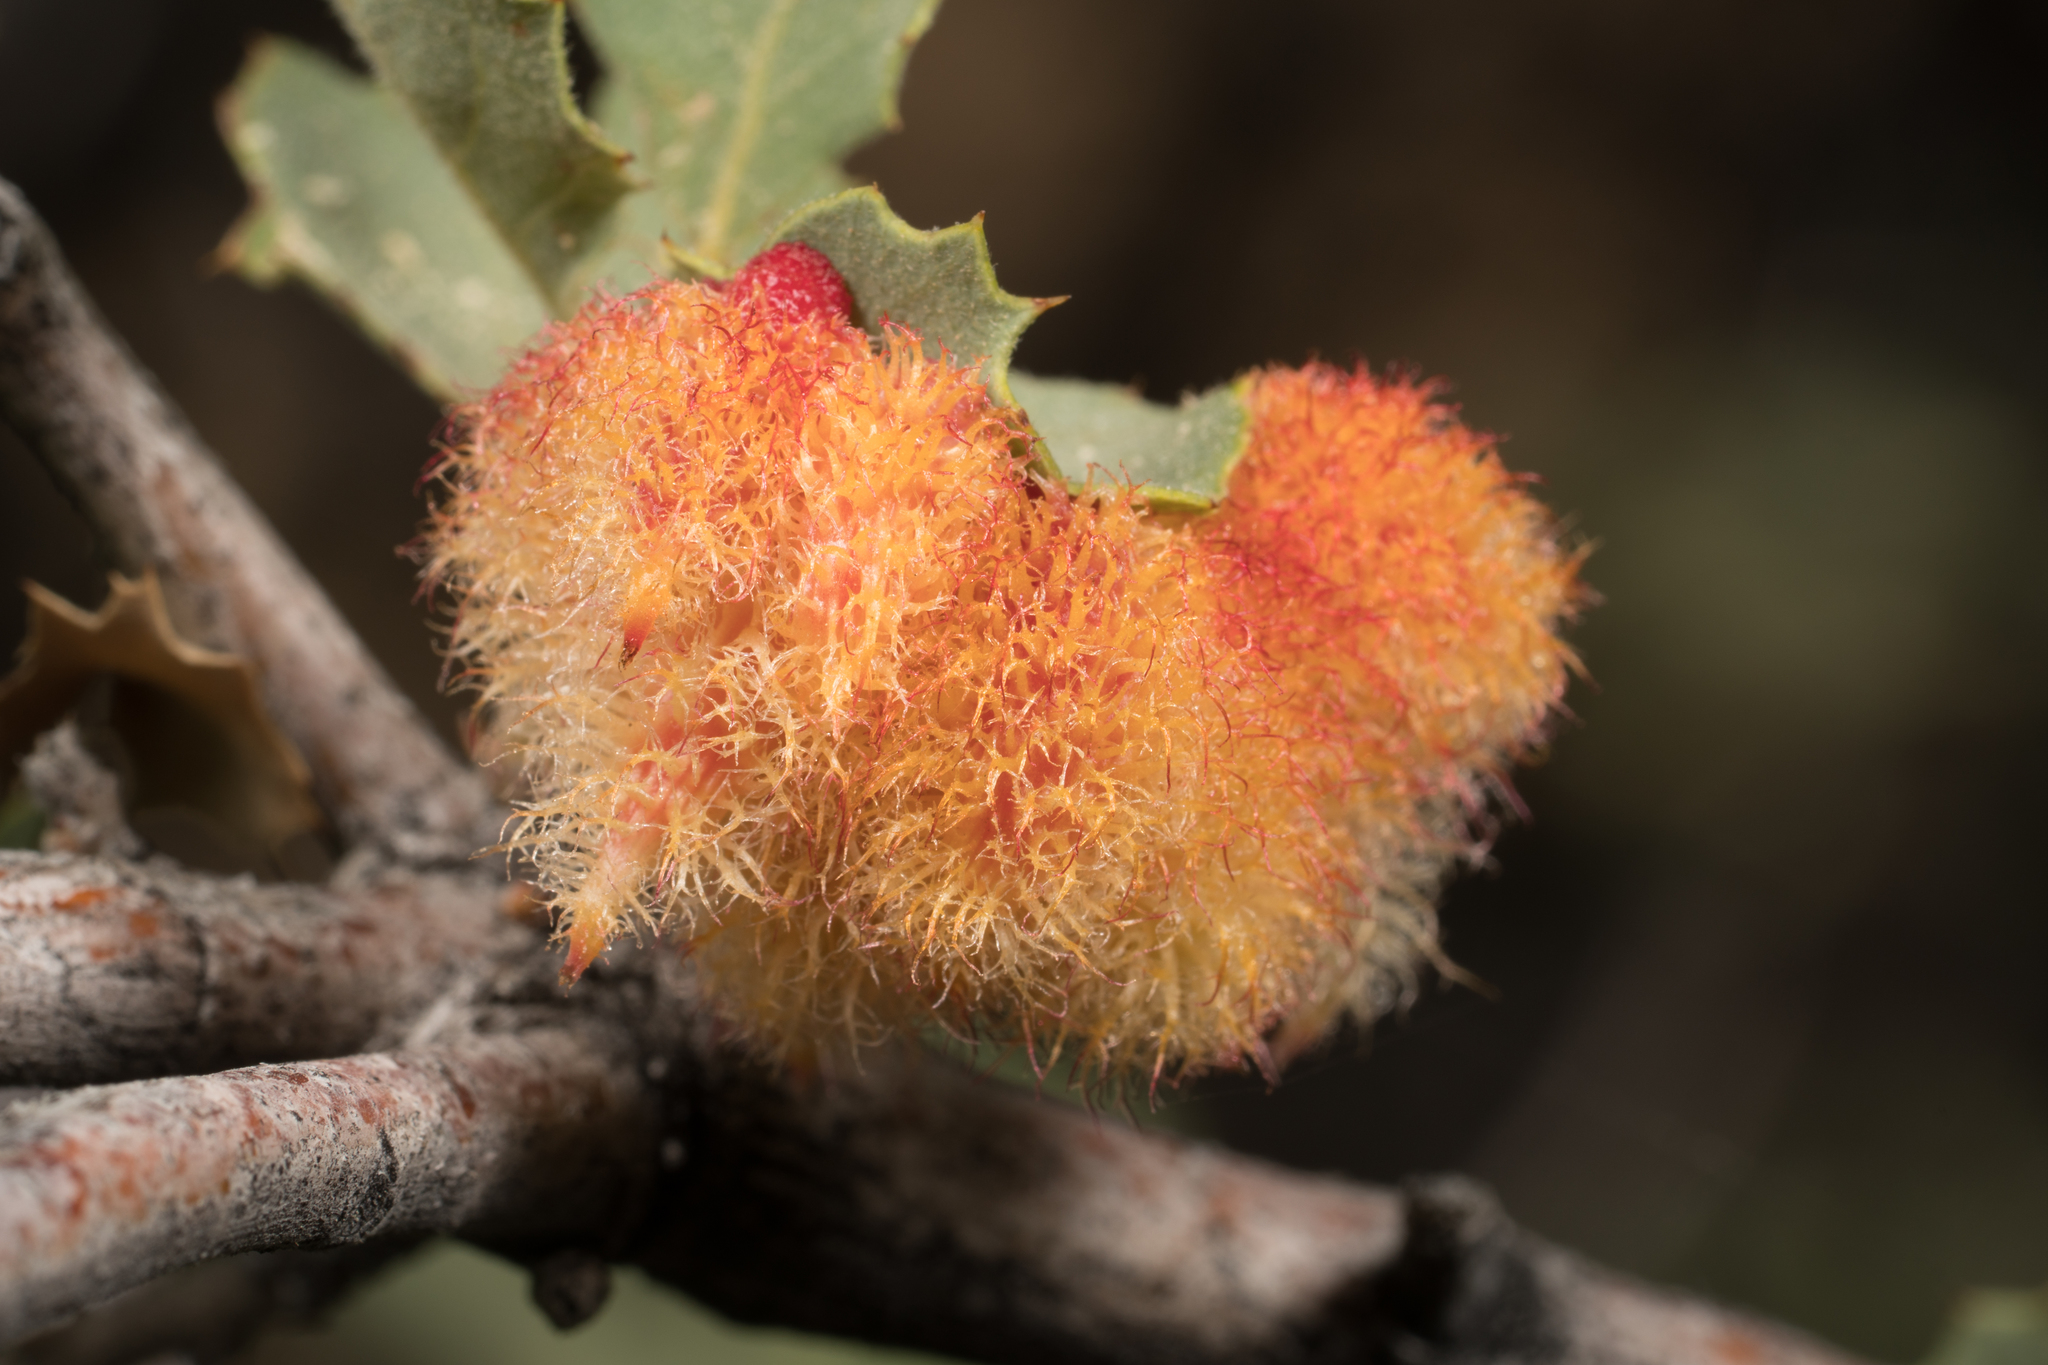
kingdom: Animalia
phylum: Arthropoda
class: Insecta
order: Hymenoptera
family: Cynipidae
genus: Andricus
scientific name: Andricus
